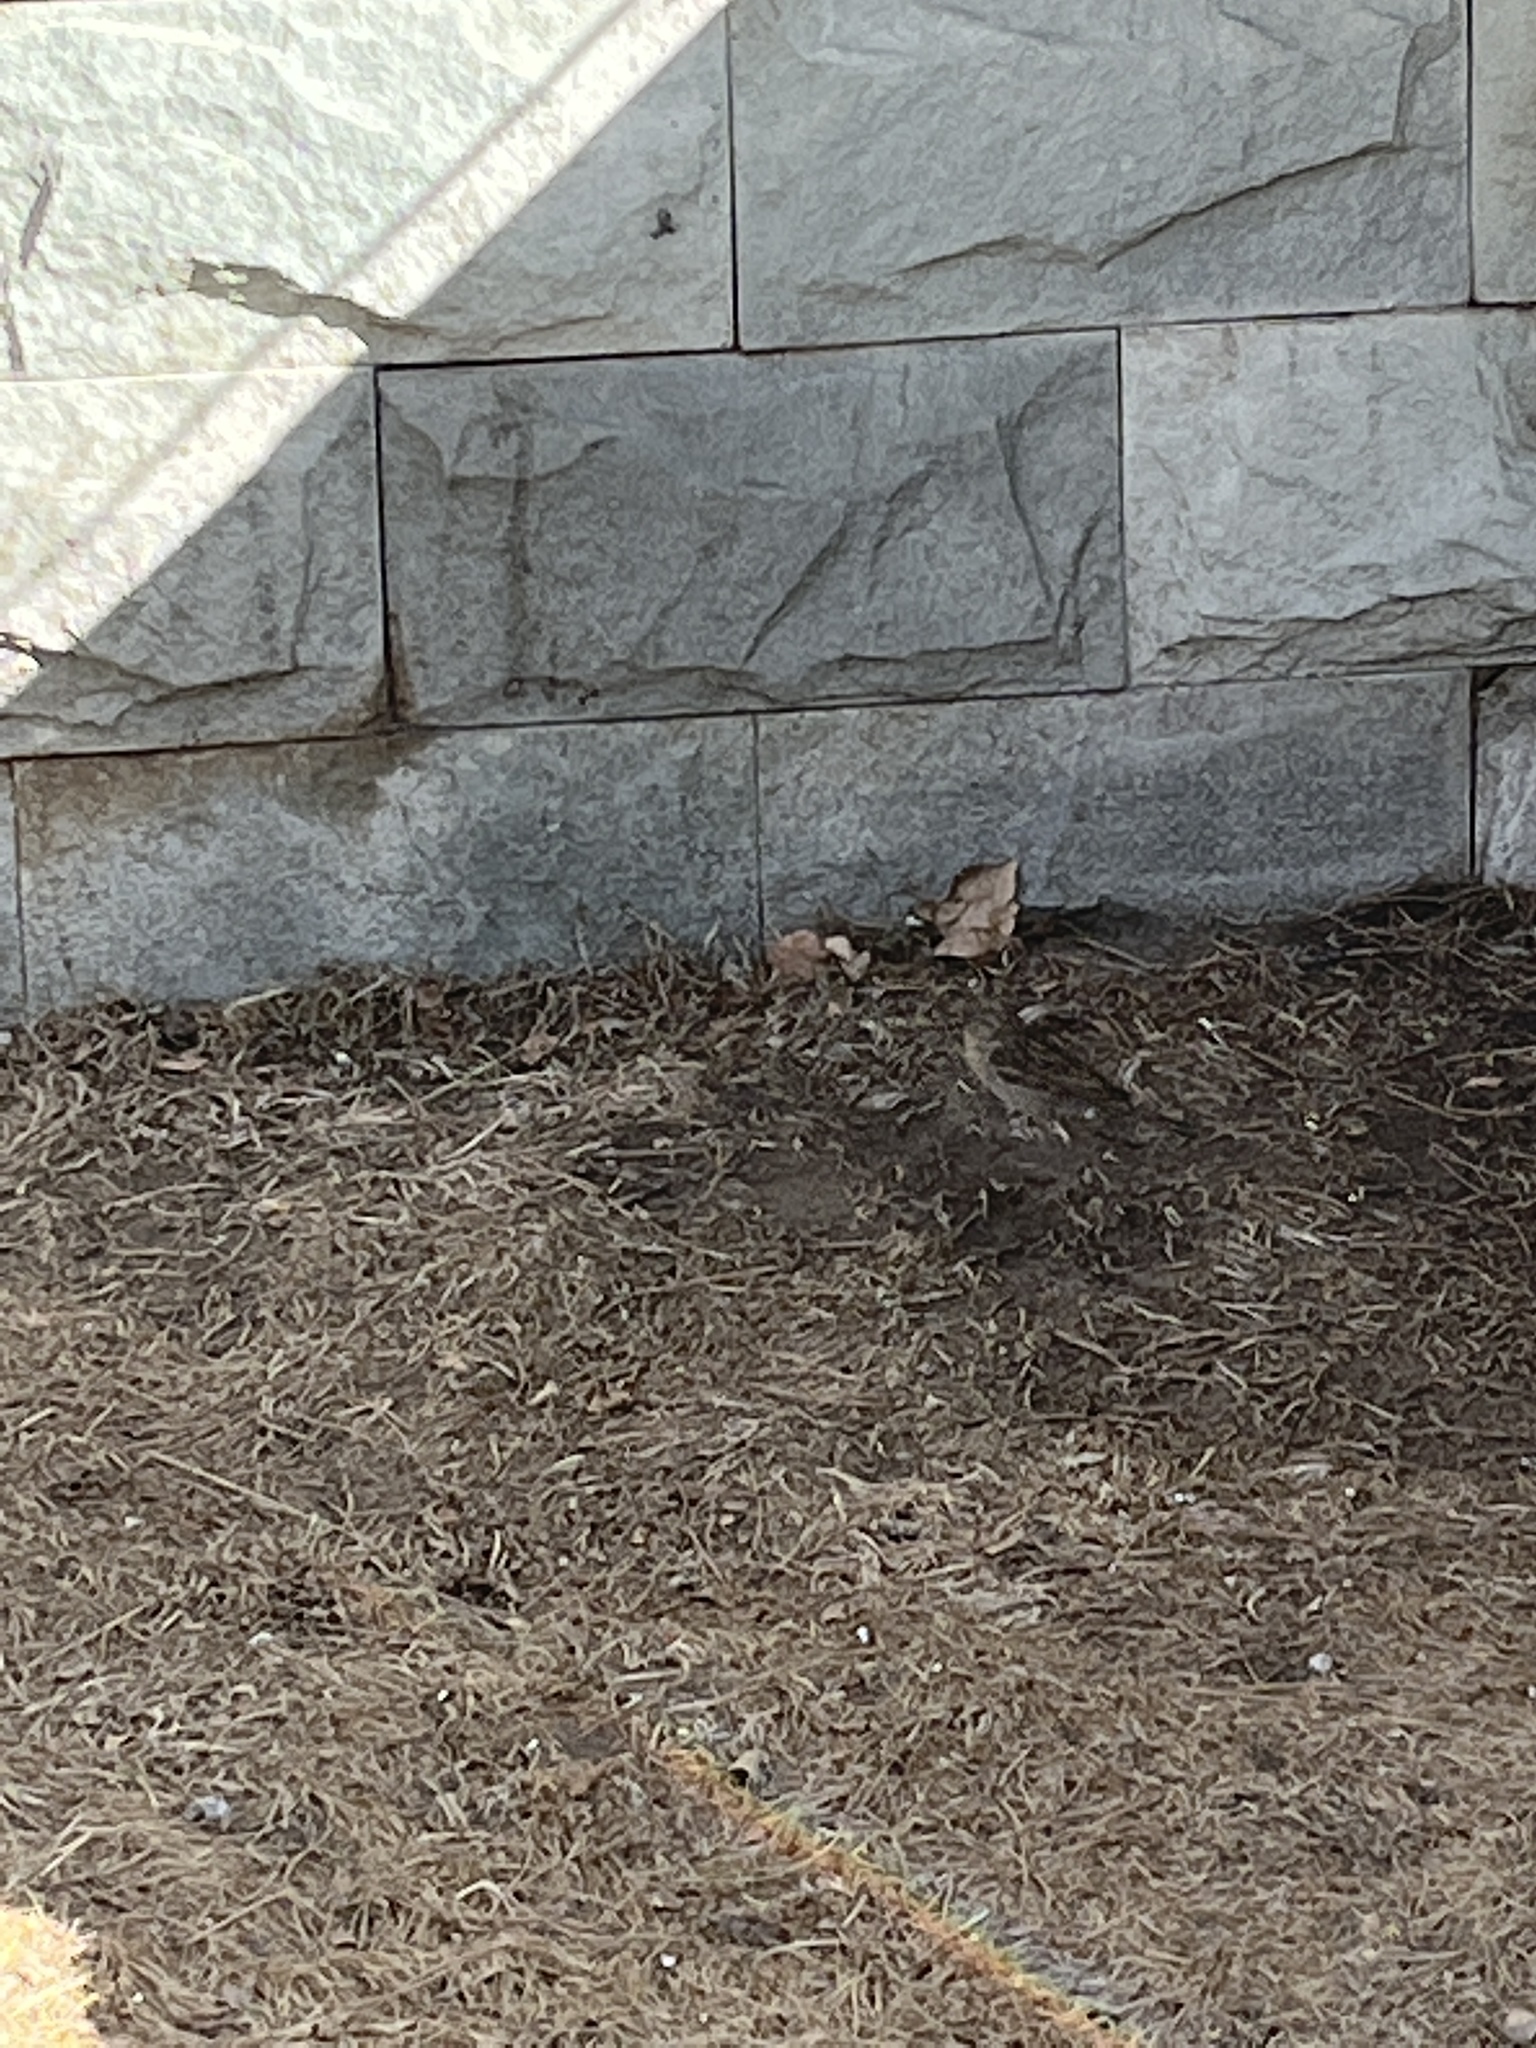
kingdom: Animalia
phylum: Chordata
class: Aves
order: Passeriformes
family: Passeridae
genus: Passer
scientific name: Passer domesticus
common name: House sparrow
